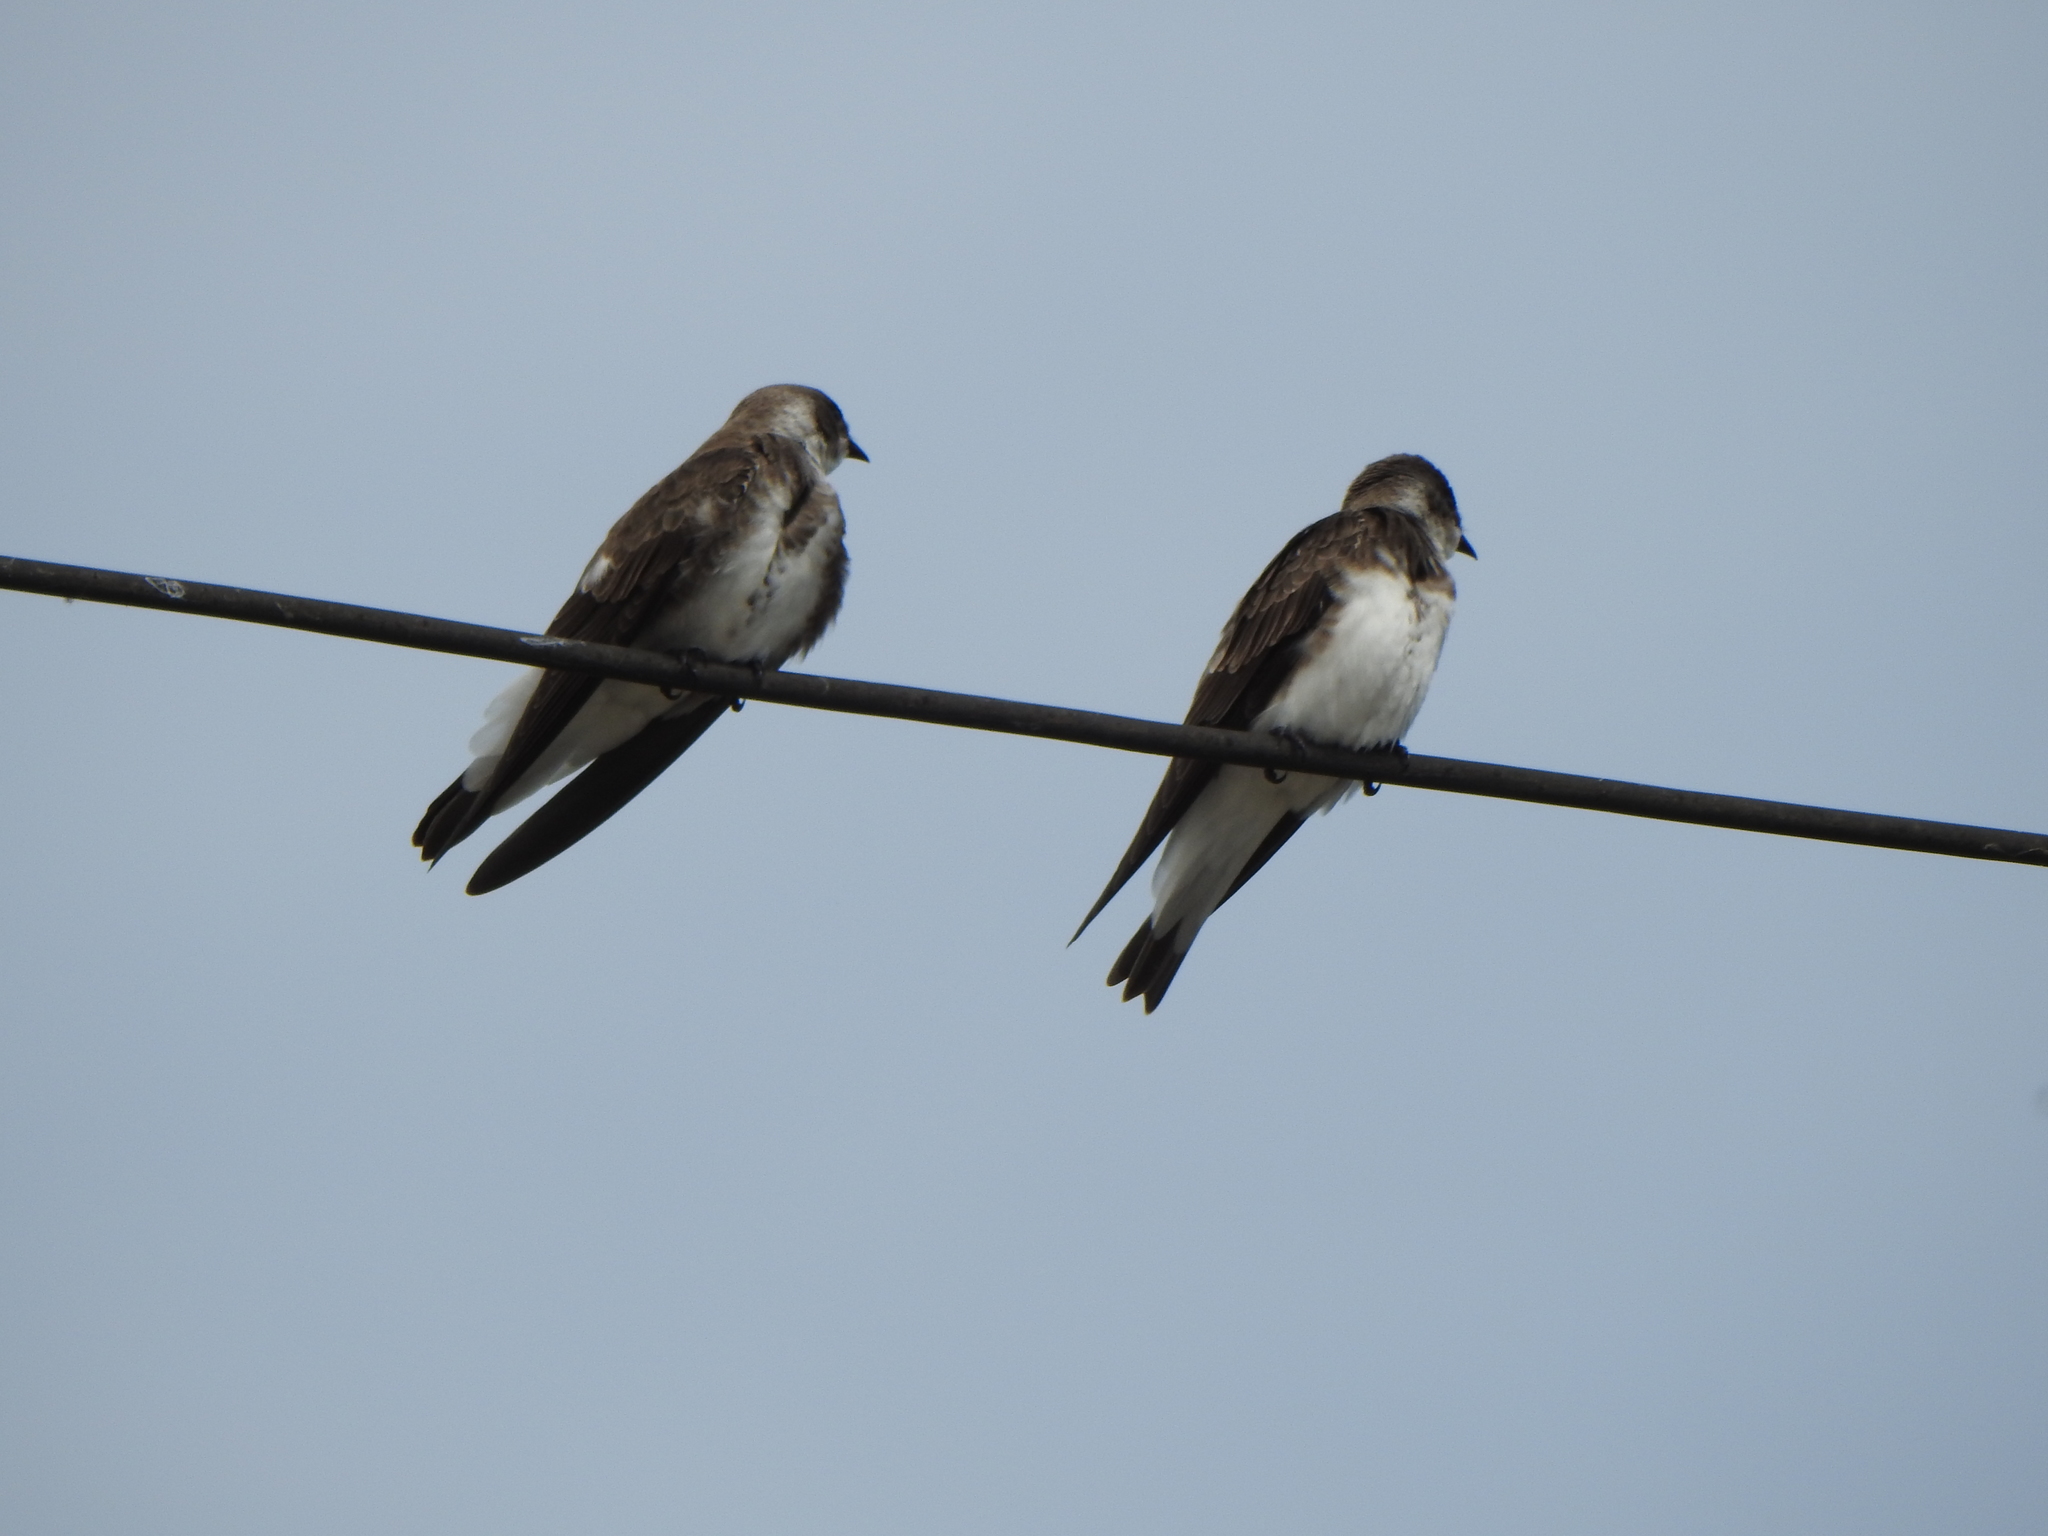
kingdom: Animalia
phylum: Chordata
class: Aves
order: Passeriformes
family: Hirundinidae
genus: Progne
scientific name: Progne tapera
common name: Brown-chested martin
